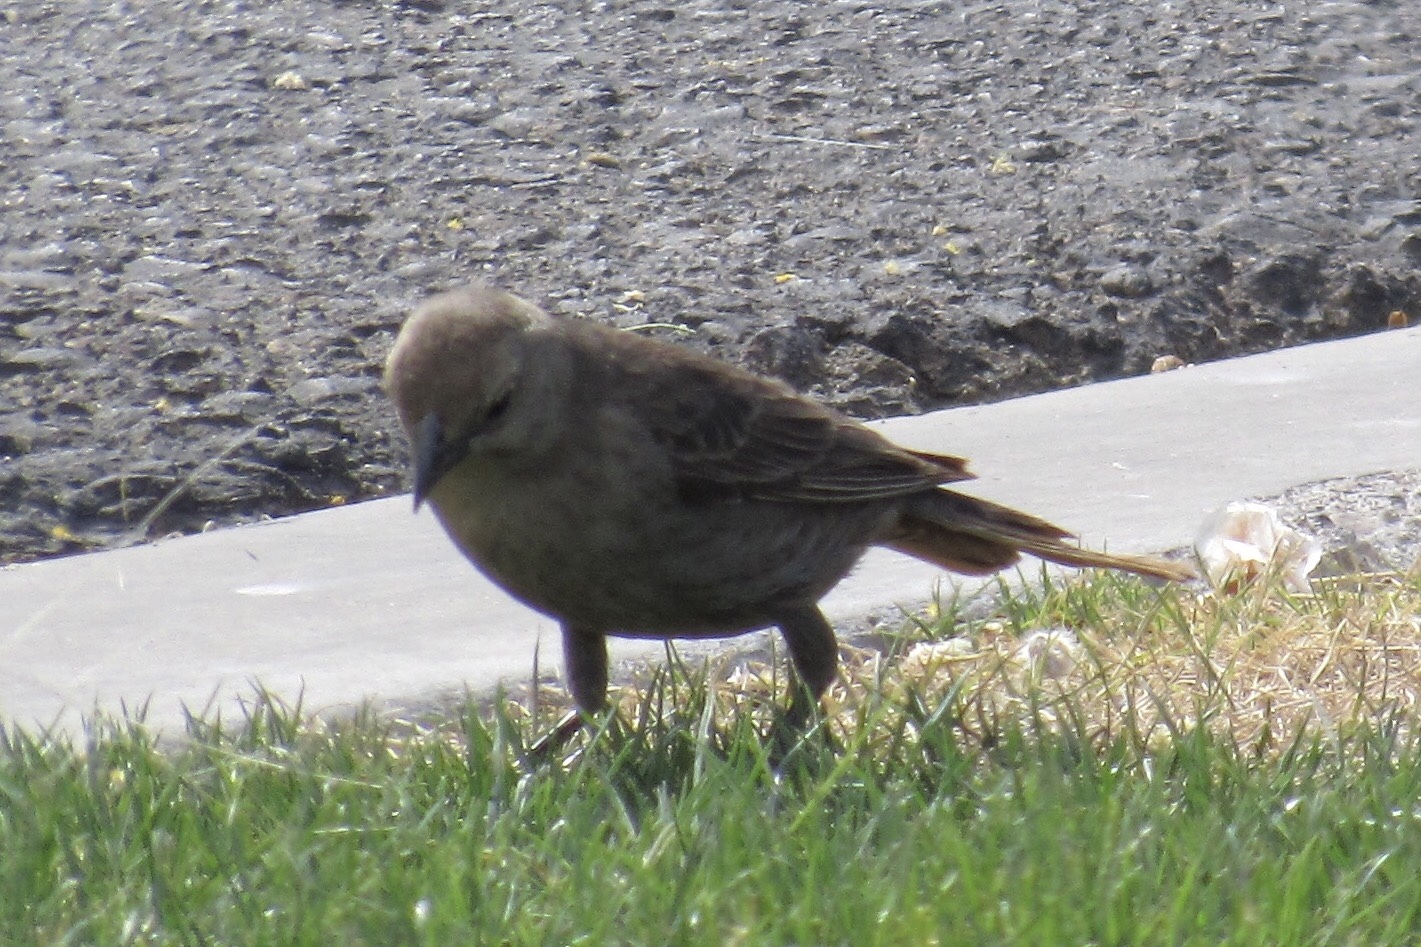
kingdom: Animalia
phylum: Chordata
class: Aves
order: Passeriformes
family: Icteridae
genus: Molothrus
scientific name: Molothrus ater
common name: Brown-headed cowbird
